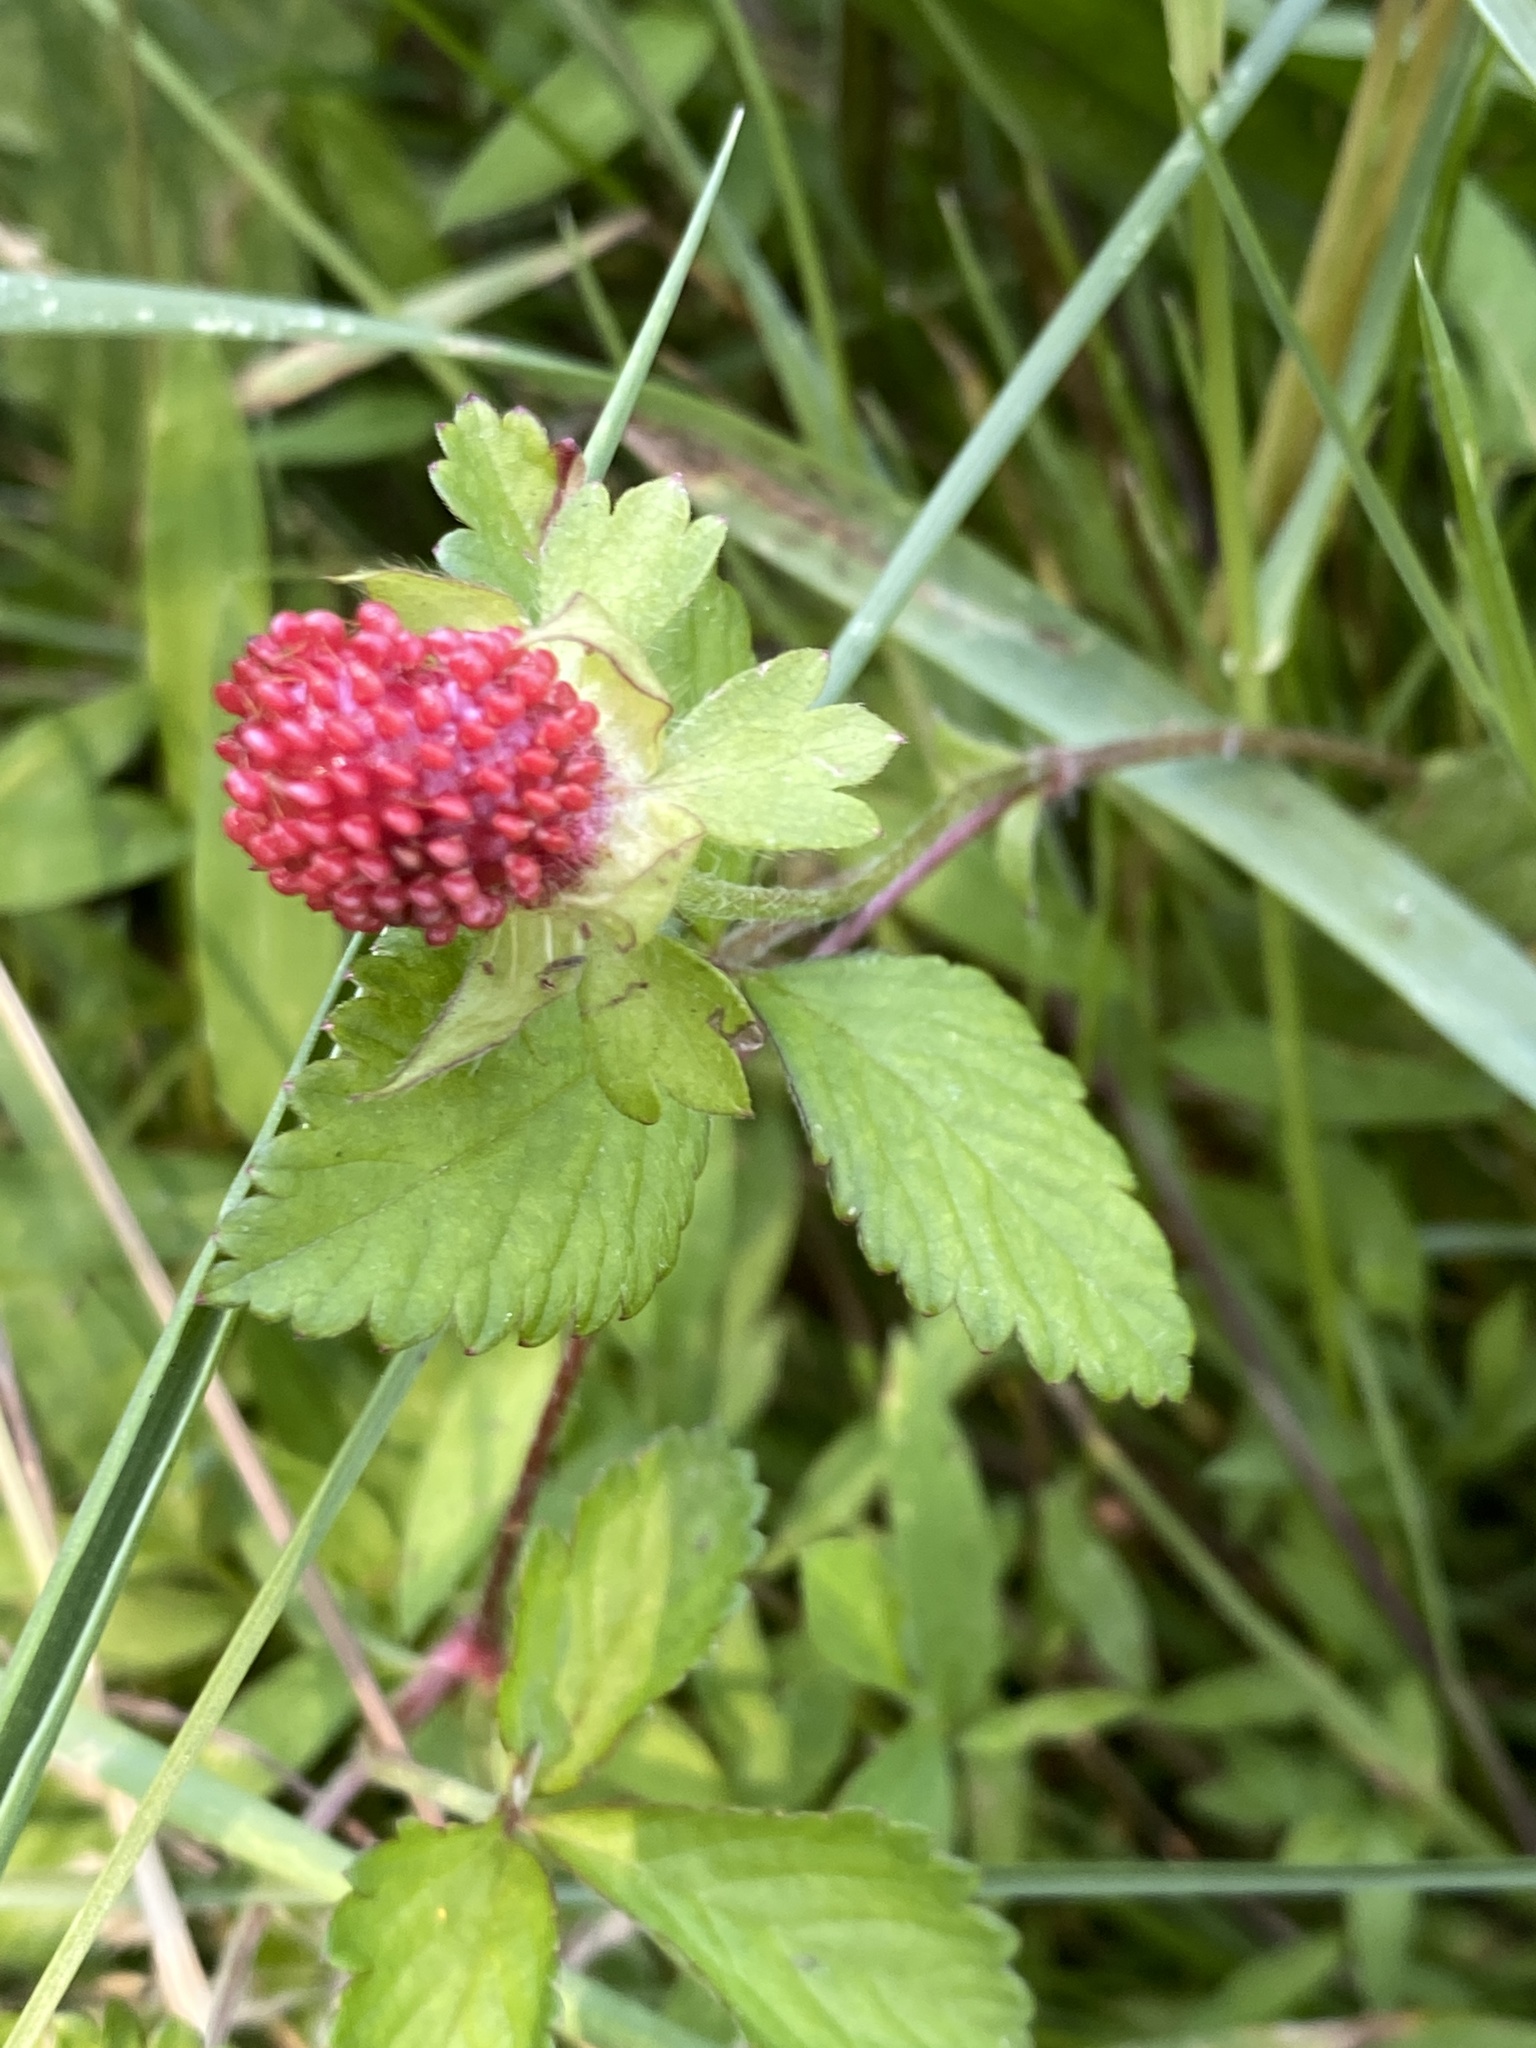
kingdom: Plantae
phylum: Tracheophyta
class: Magnoliopsida
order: Rosales
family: Rosaceae
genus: Potentilla
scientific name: Potentilla indica
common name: Yellow-flowered strawberry
